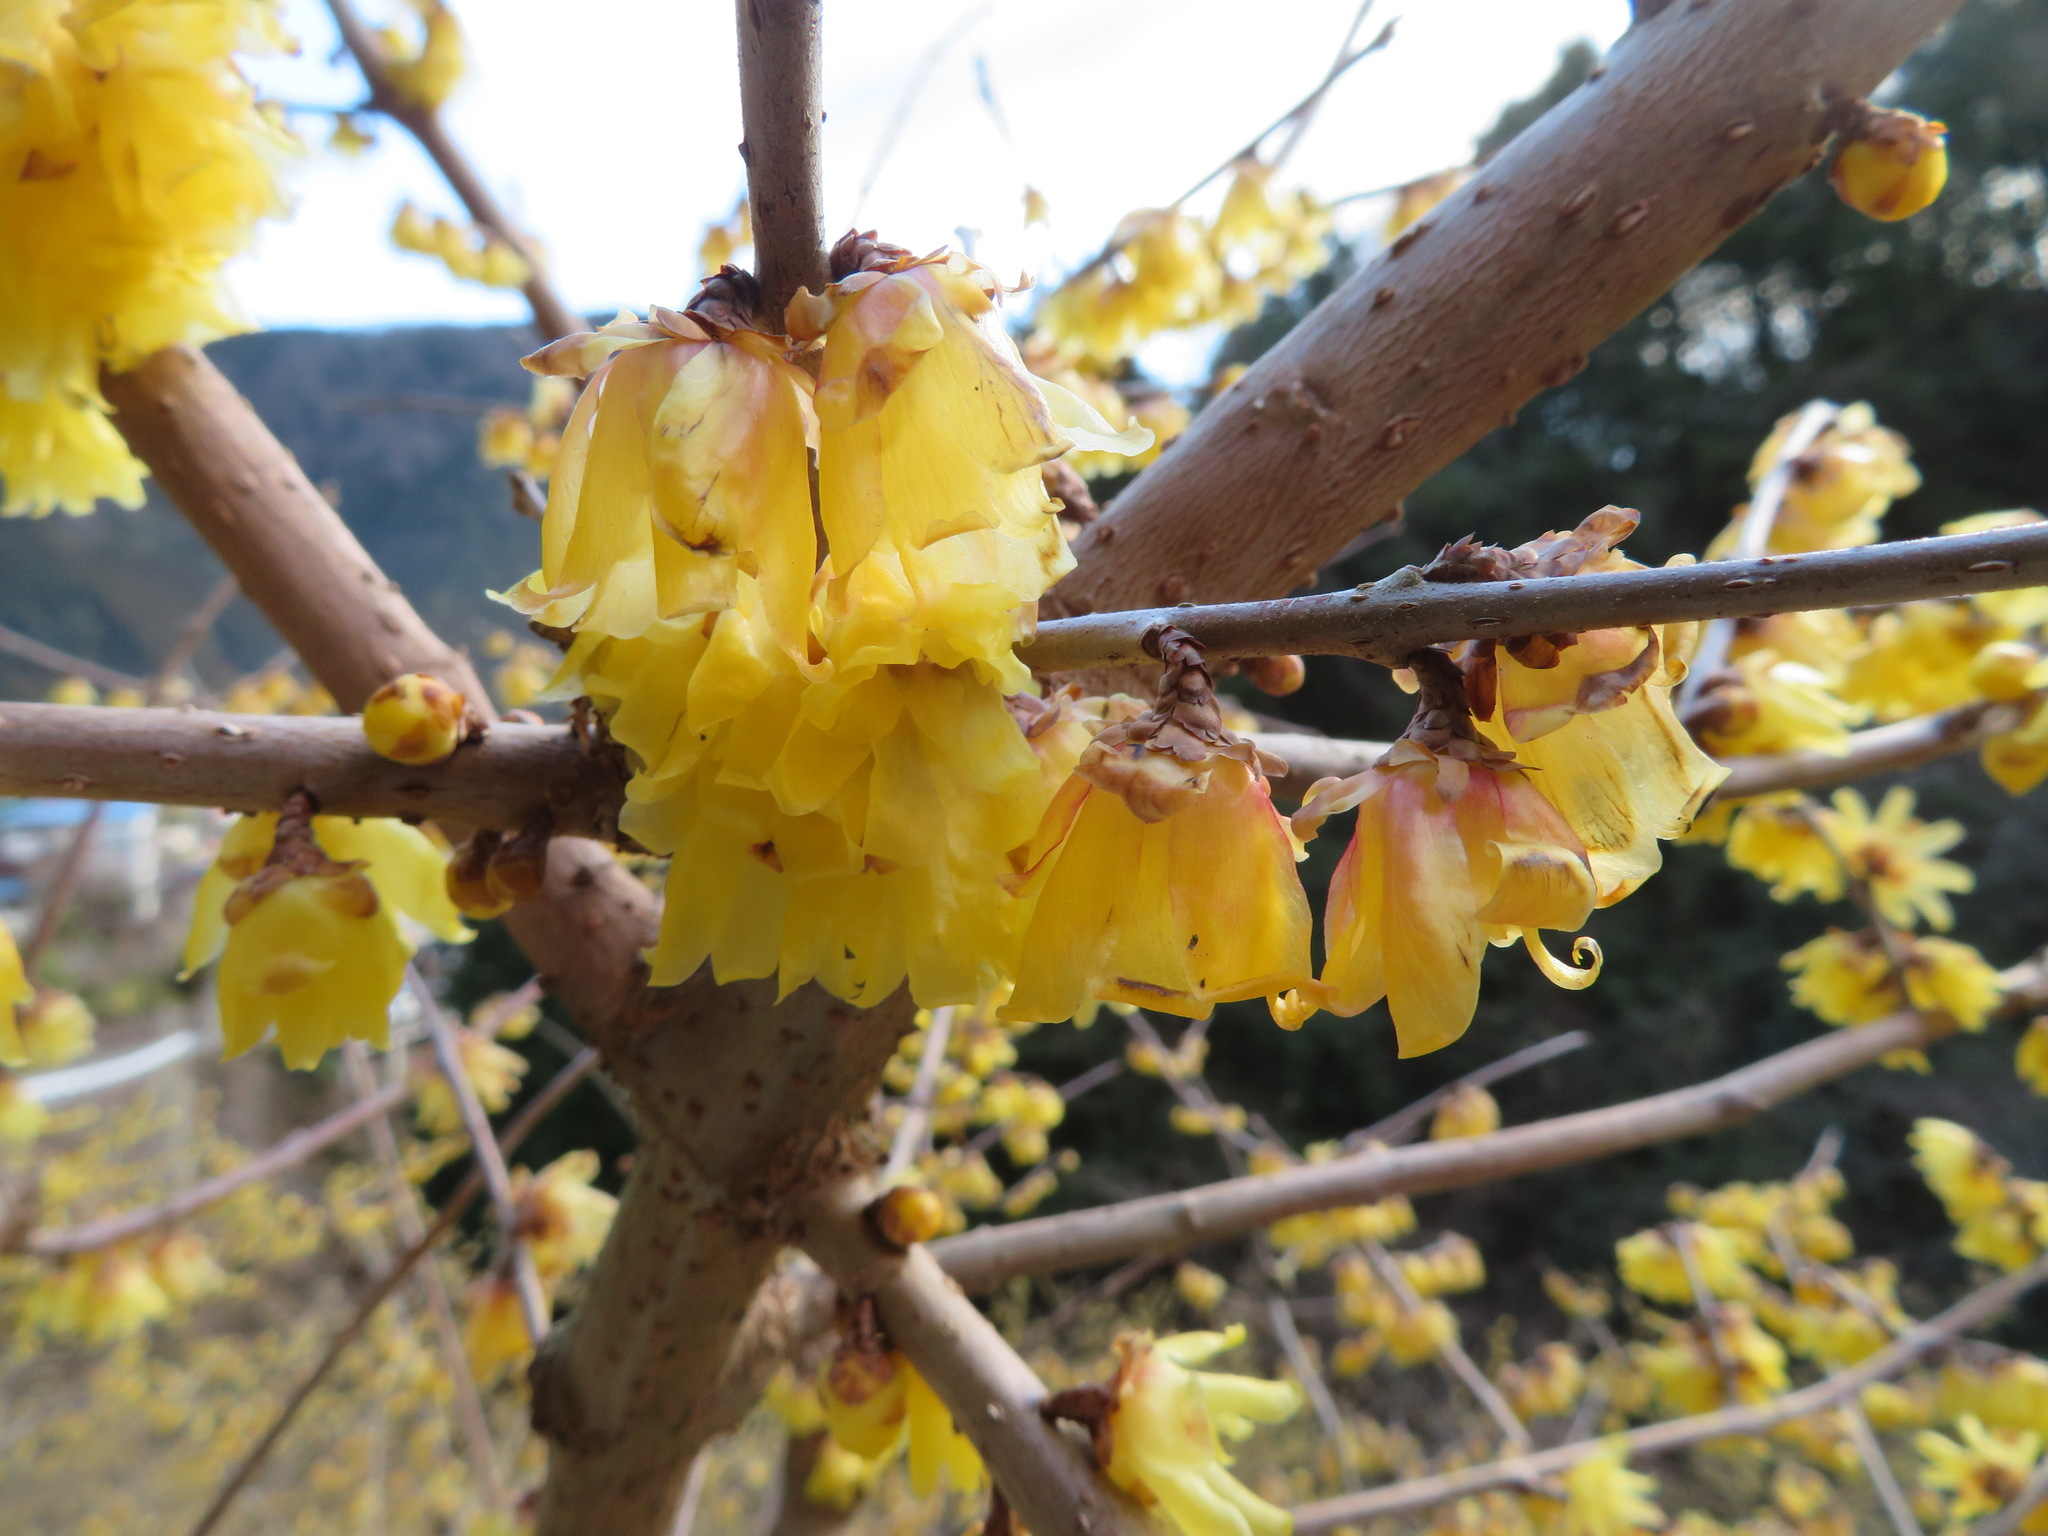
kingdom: Plantae
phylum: Tracheophyta
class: Magnoliopsida
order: Laurales
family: Calycanthaceae
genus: Chimonanthus
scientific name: Chimonanthus praecox
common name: Wintersweet
